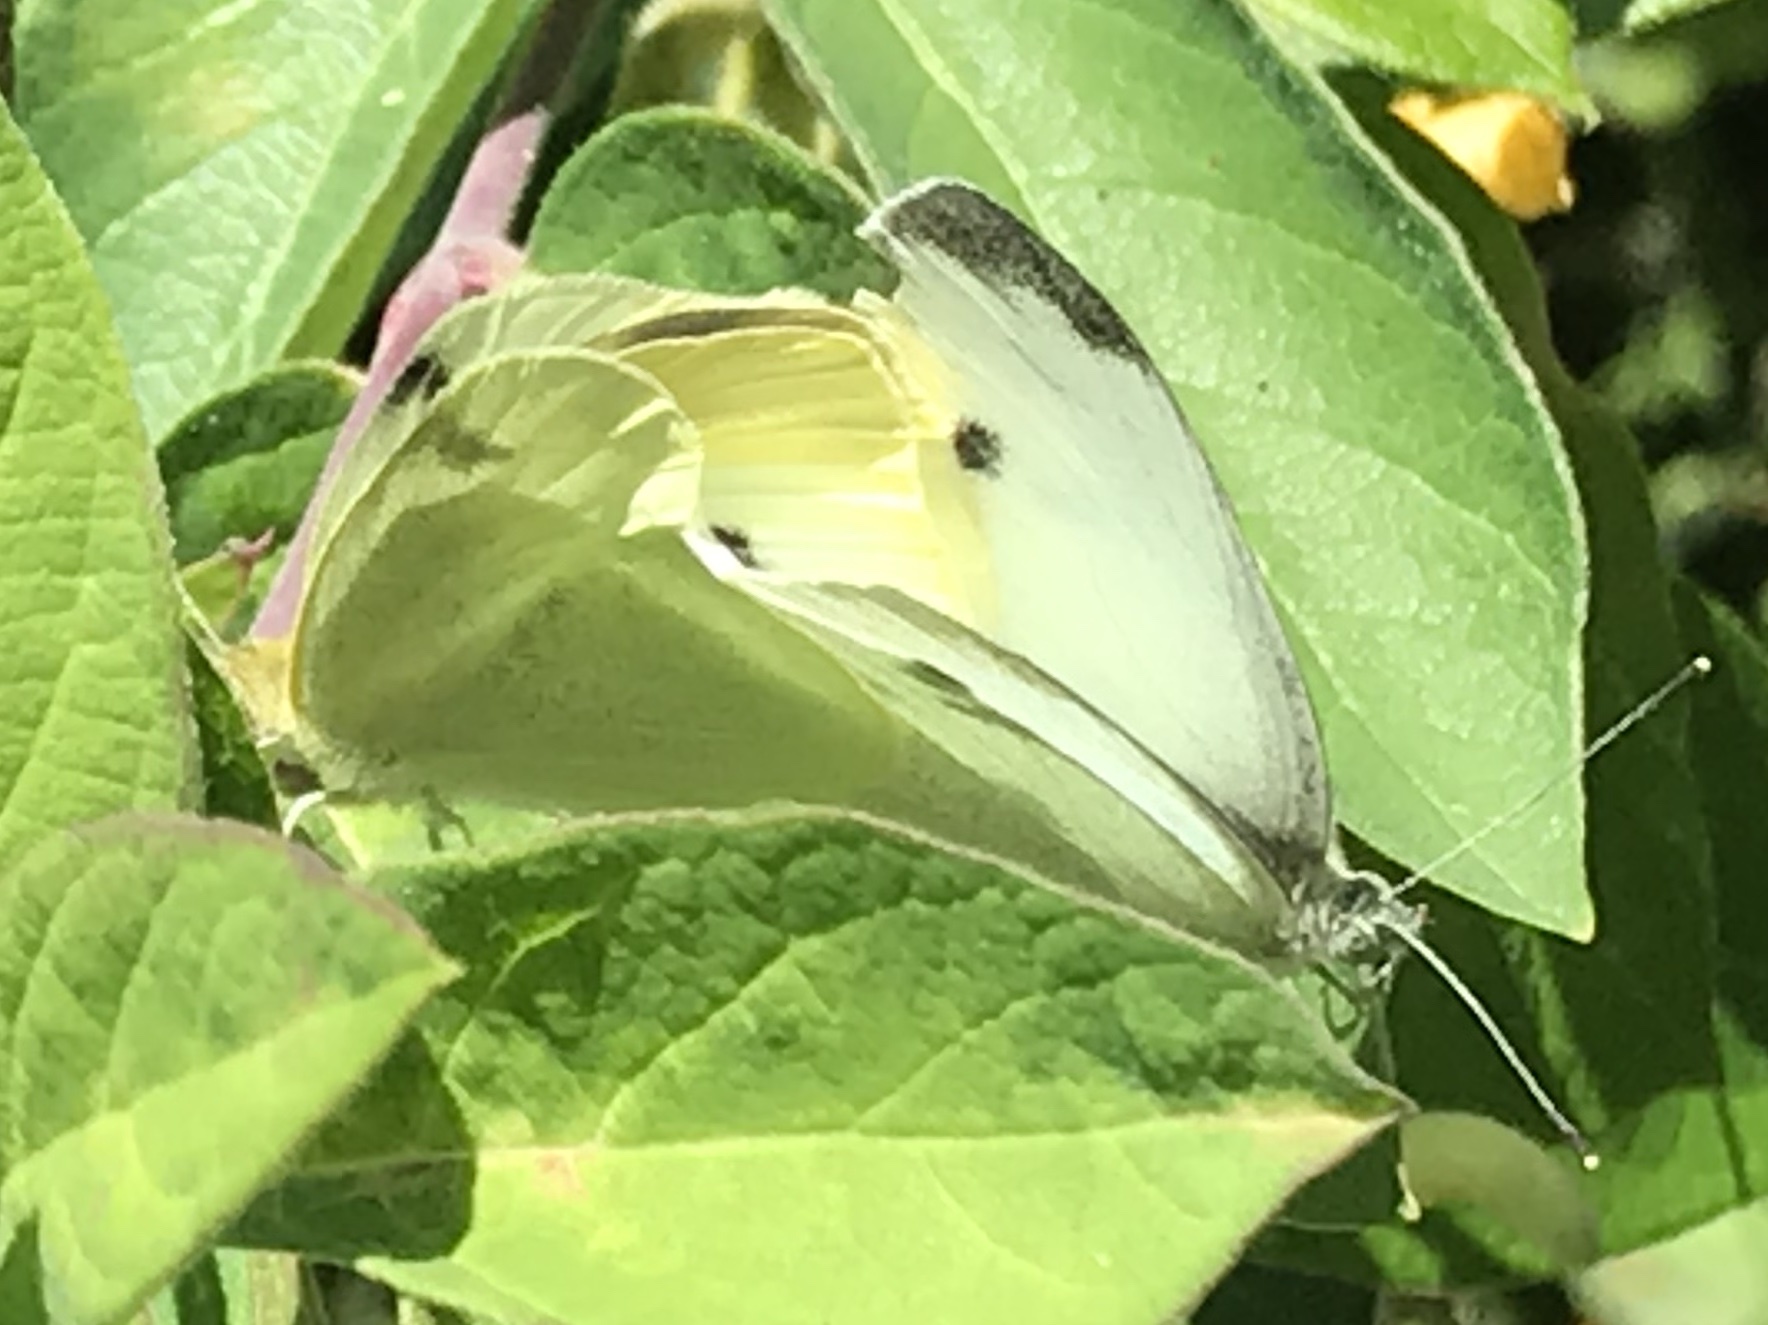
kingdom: Animalia
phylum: Arthropoda
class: Insecta
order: Lepidoptera
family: Pieridae
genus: Pieris
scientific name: Pieris rapae
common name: Small white
